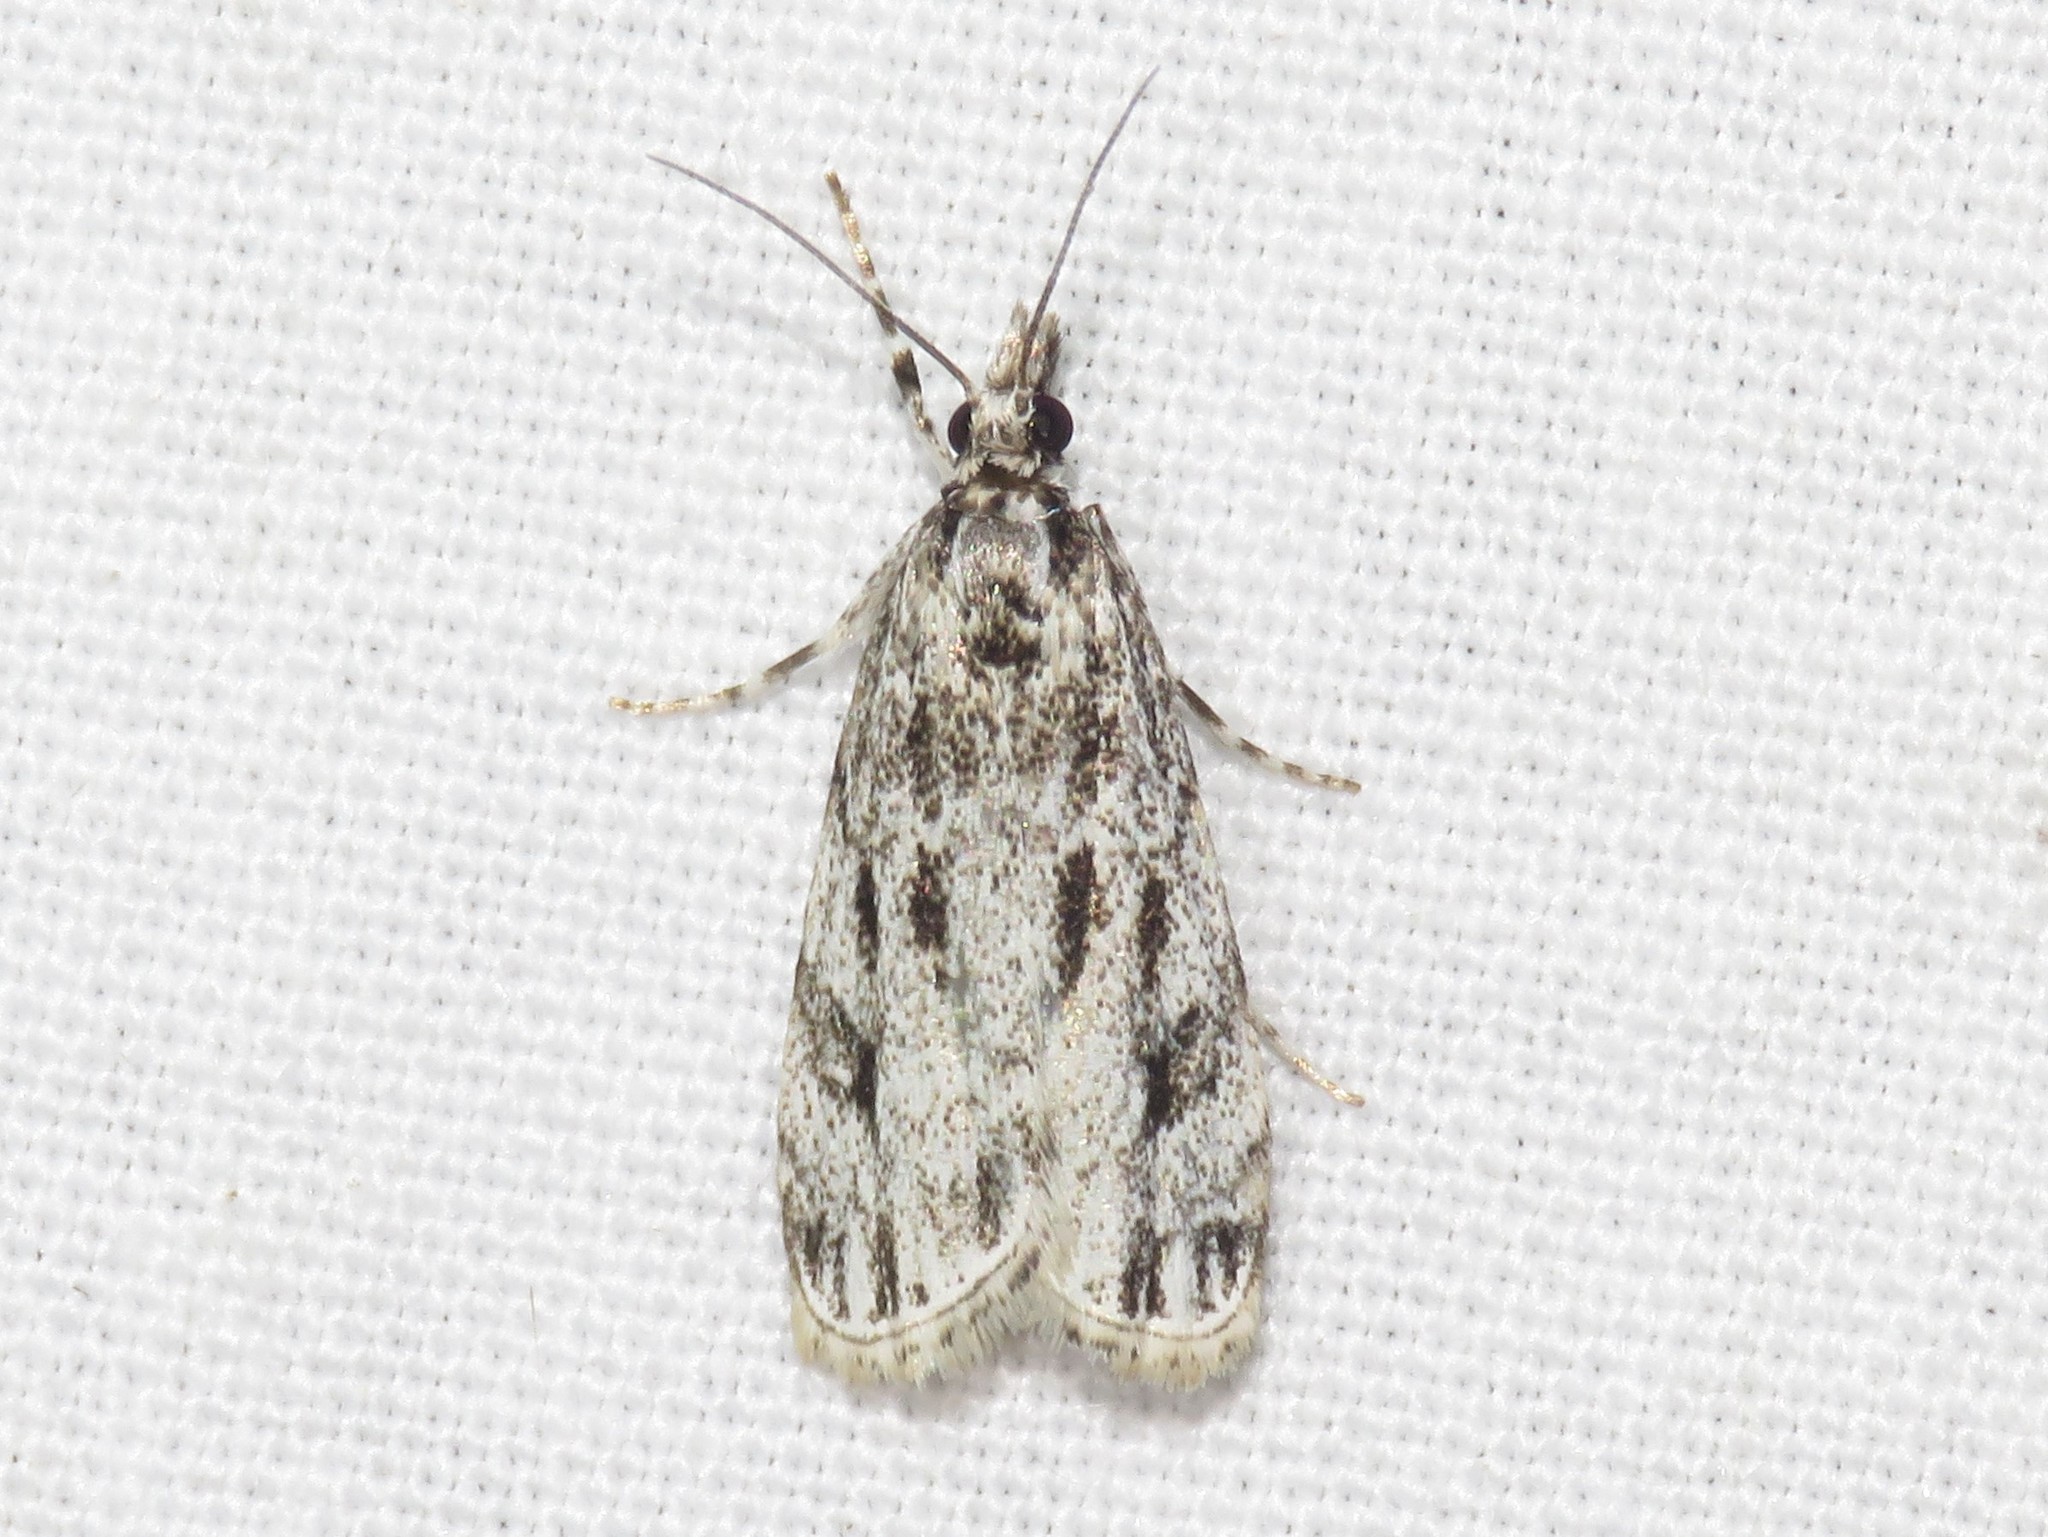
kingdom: Animalia
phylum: Arthropoda
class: Insecta
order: Lepidoptera
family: Crambidae
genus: Eudonia
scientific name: Eudonia strigalis
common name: Striped eudonia moth
